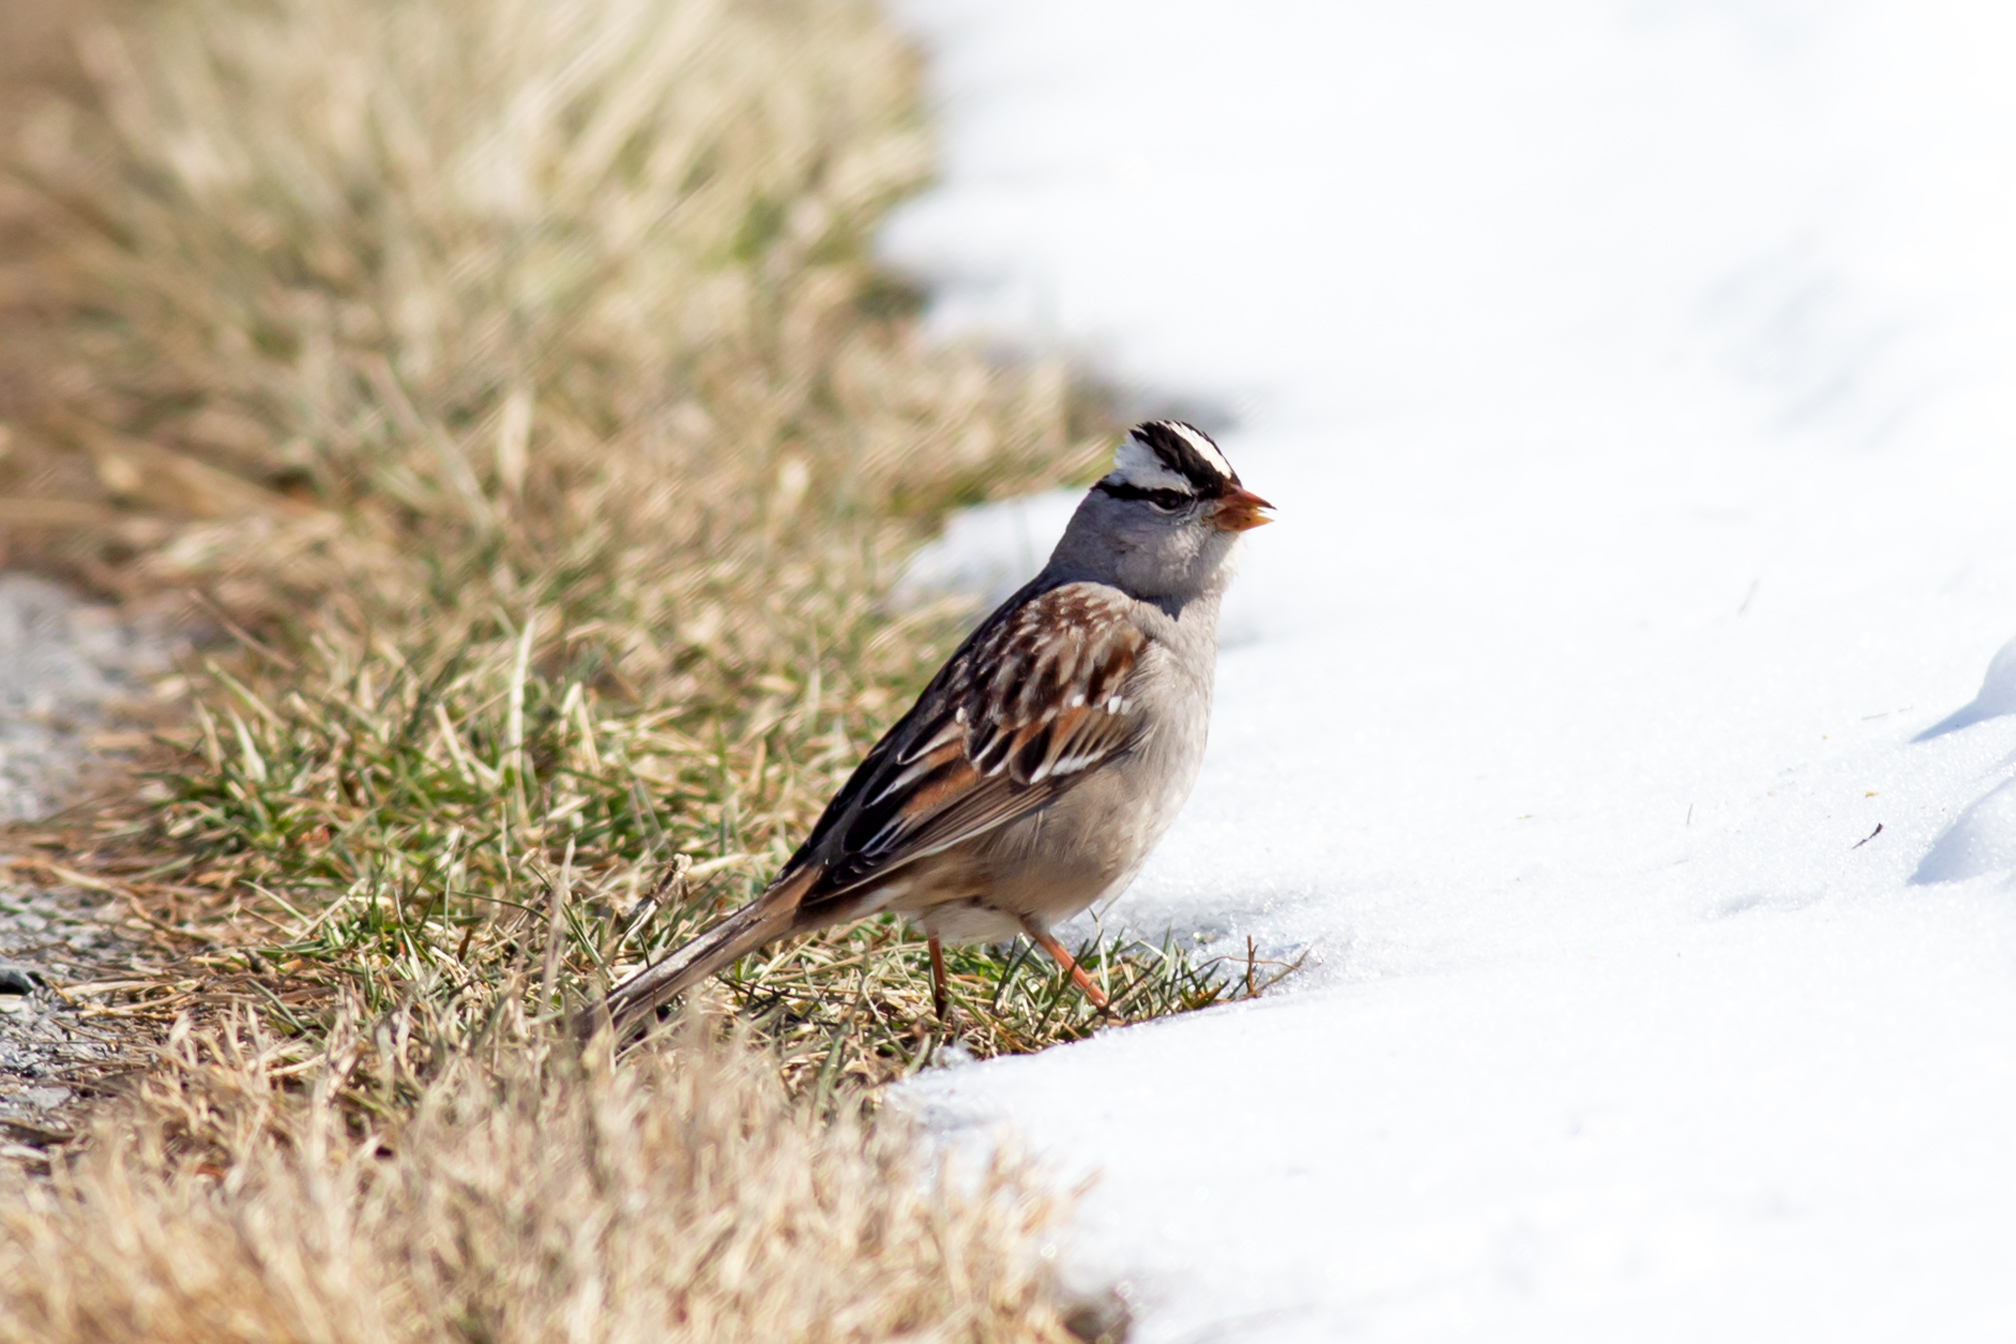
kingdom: Animalia
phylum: Chordata
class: Aves
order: Passeriformes
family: Passerellidae
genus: Zonotrichia
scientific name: Zonotrichia leucophrys
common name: White-crowned sparrow
